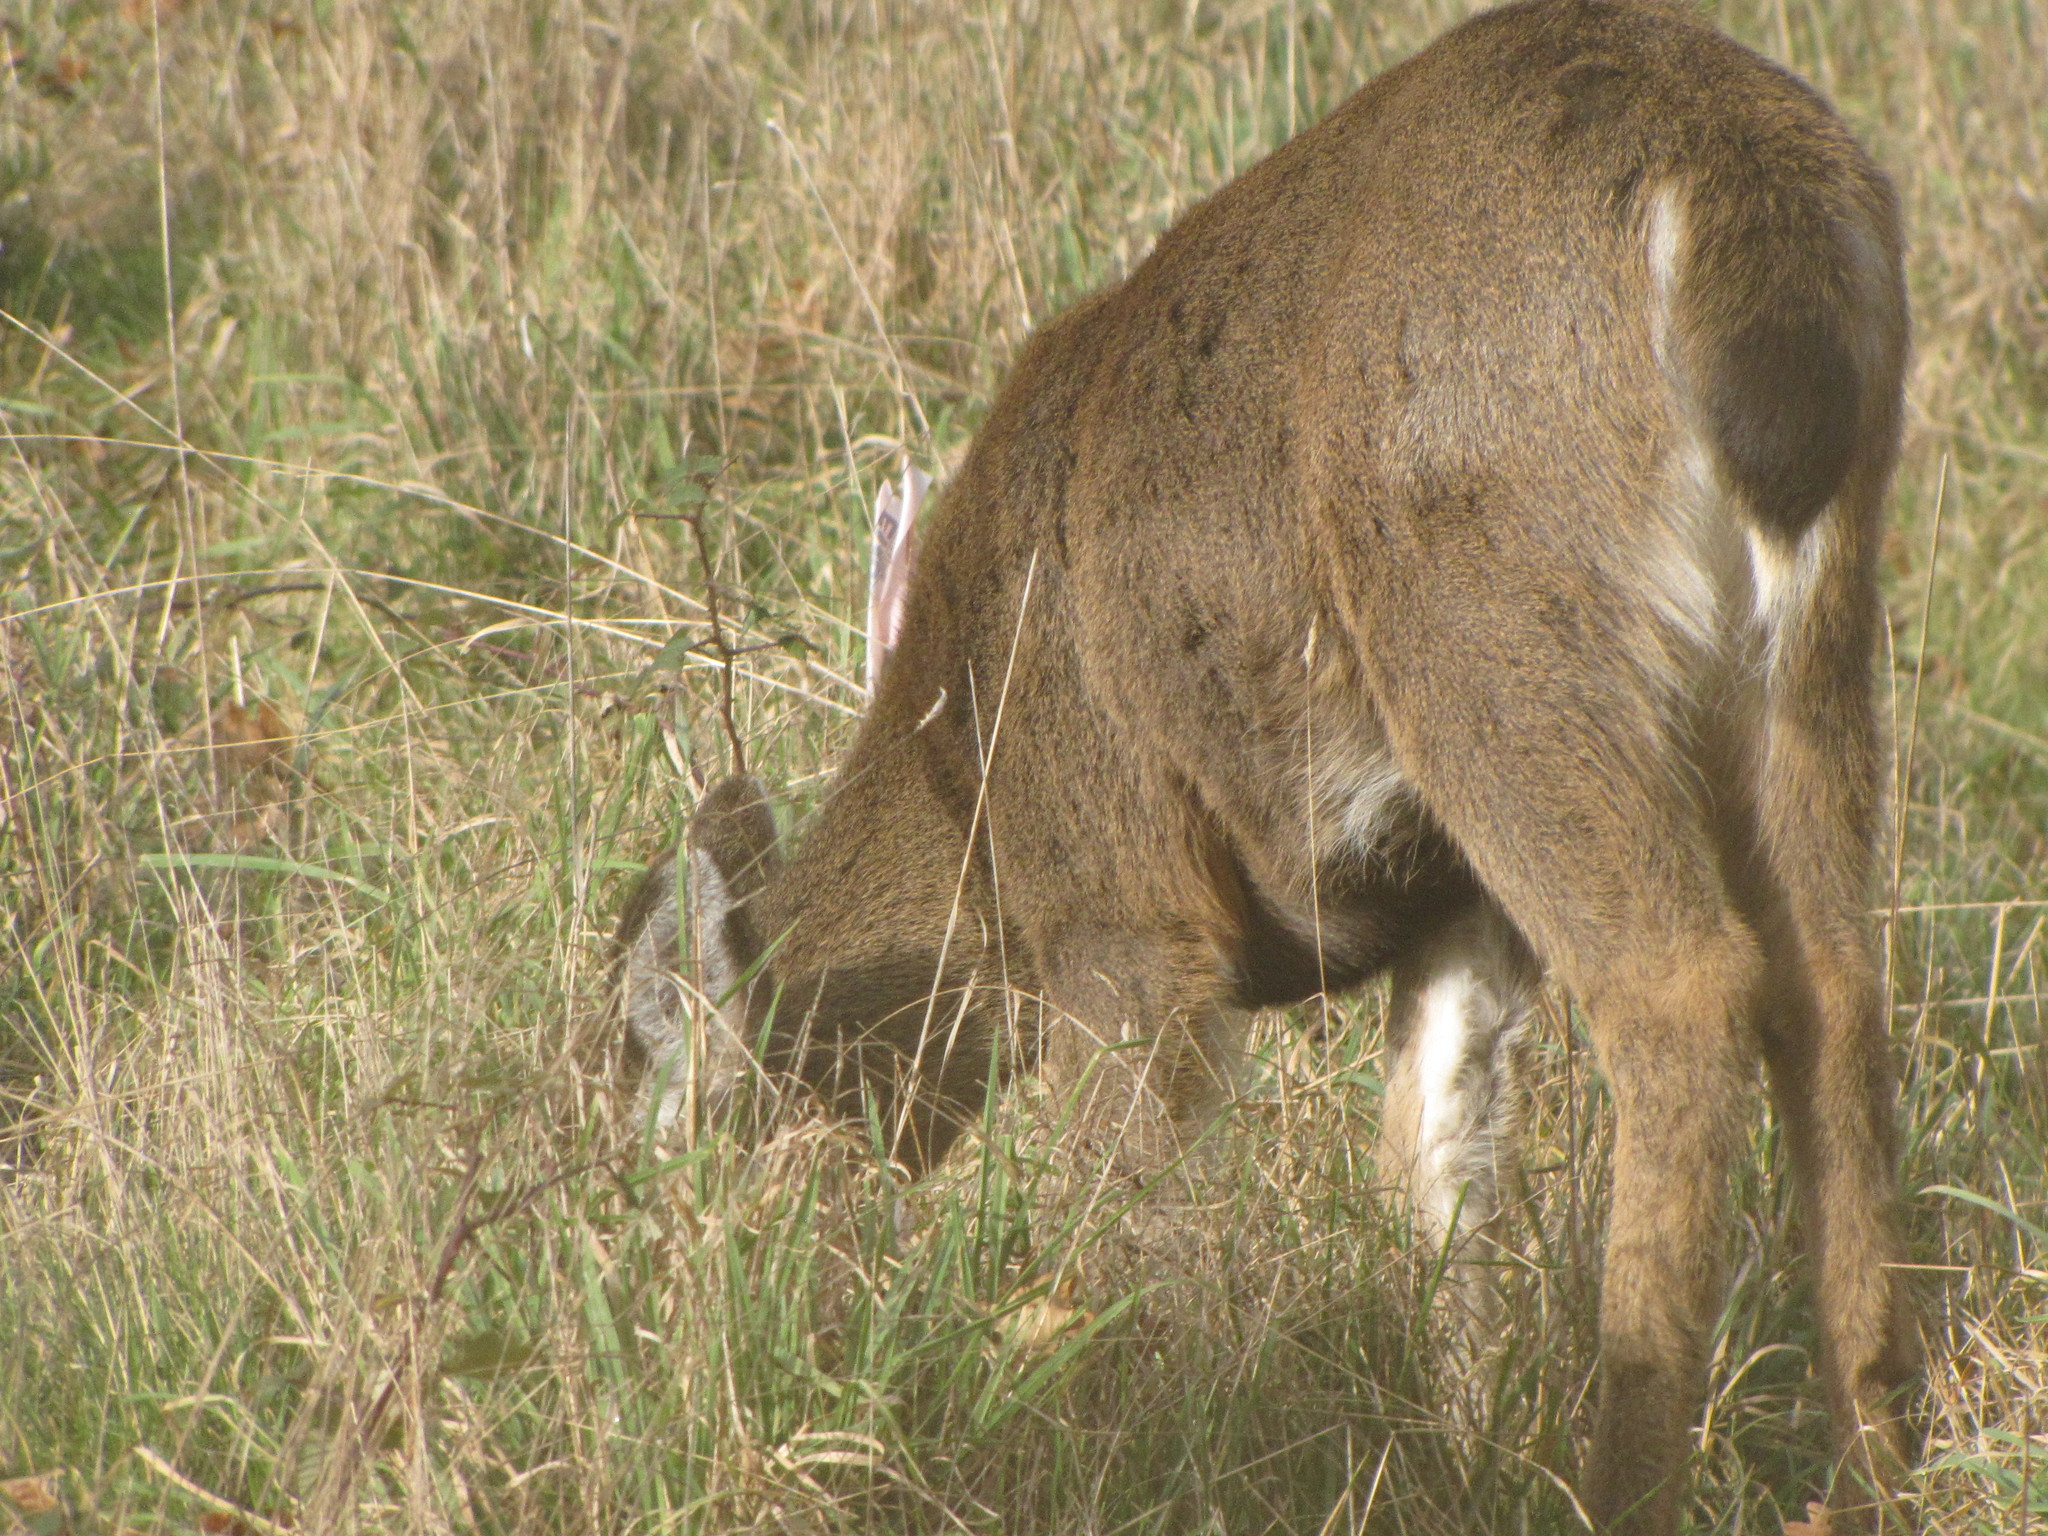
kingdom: Animalia
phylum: Chordata
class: Mammalia
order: Artiodactyla
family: Cervidae
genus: Odocoileus
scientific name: Odocoileus hemionus
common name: Mule deer
